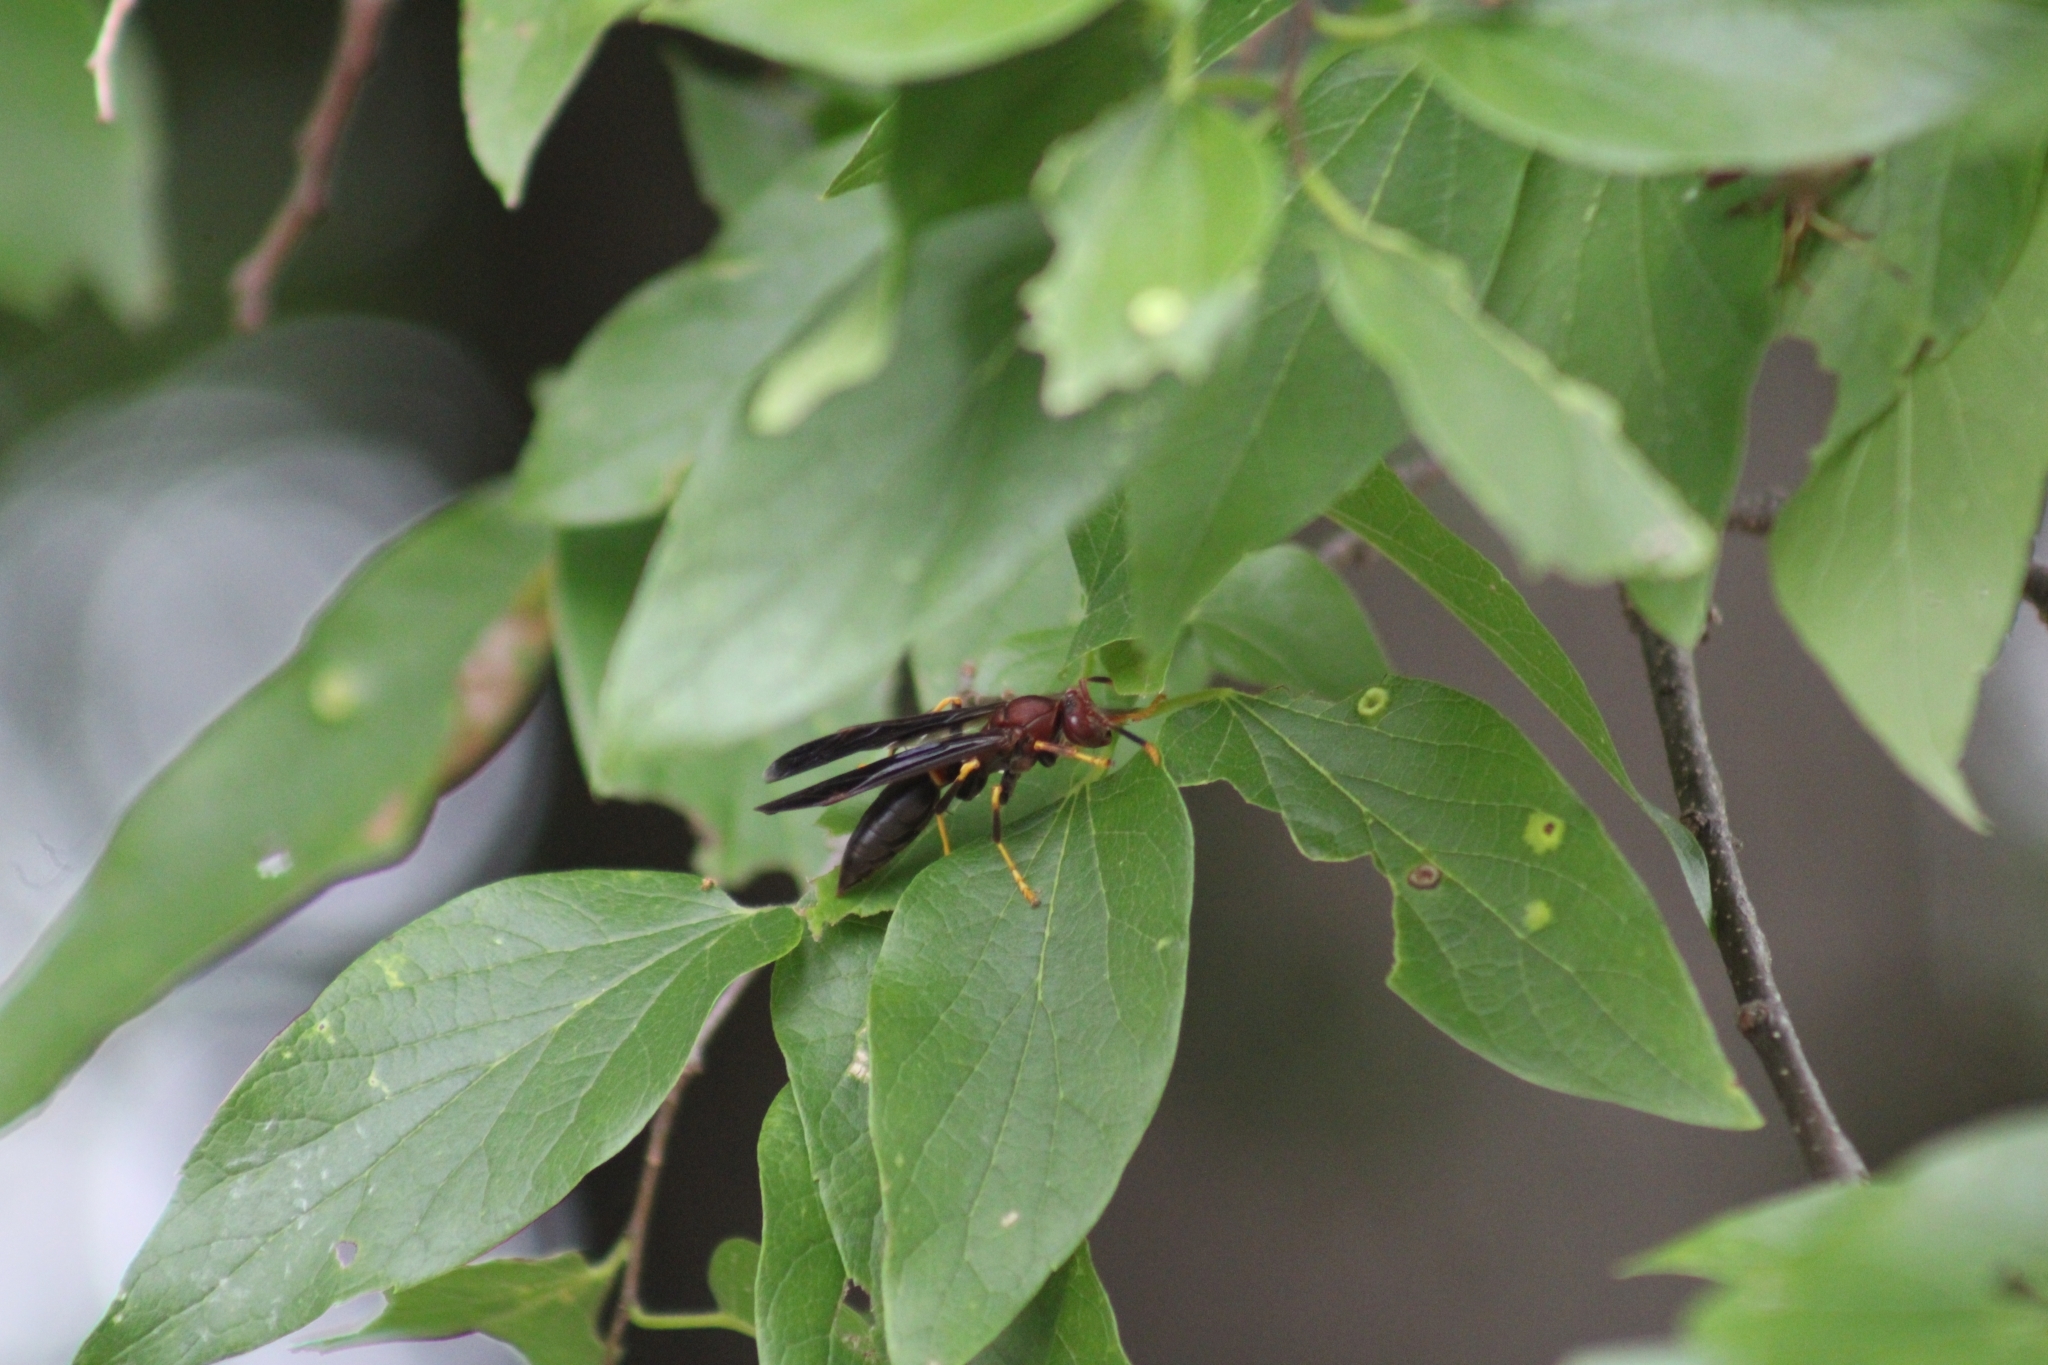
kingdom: Animalia
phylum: Arthropoda
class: Insecta
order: Hymenoptera
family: Eumenidae
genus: Polistes
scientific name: Polistes annularis
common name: Ringed paper wasp
